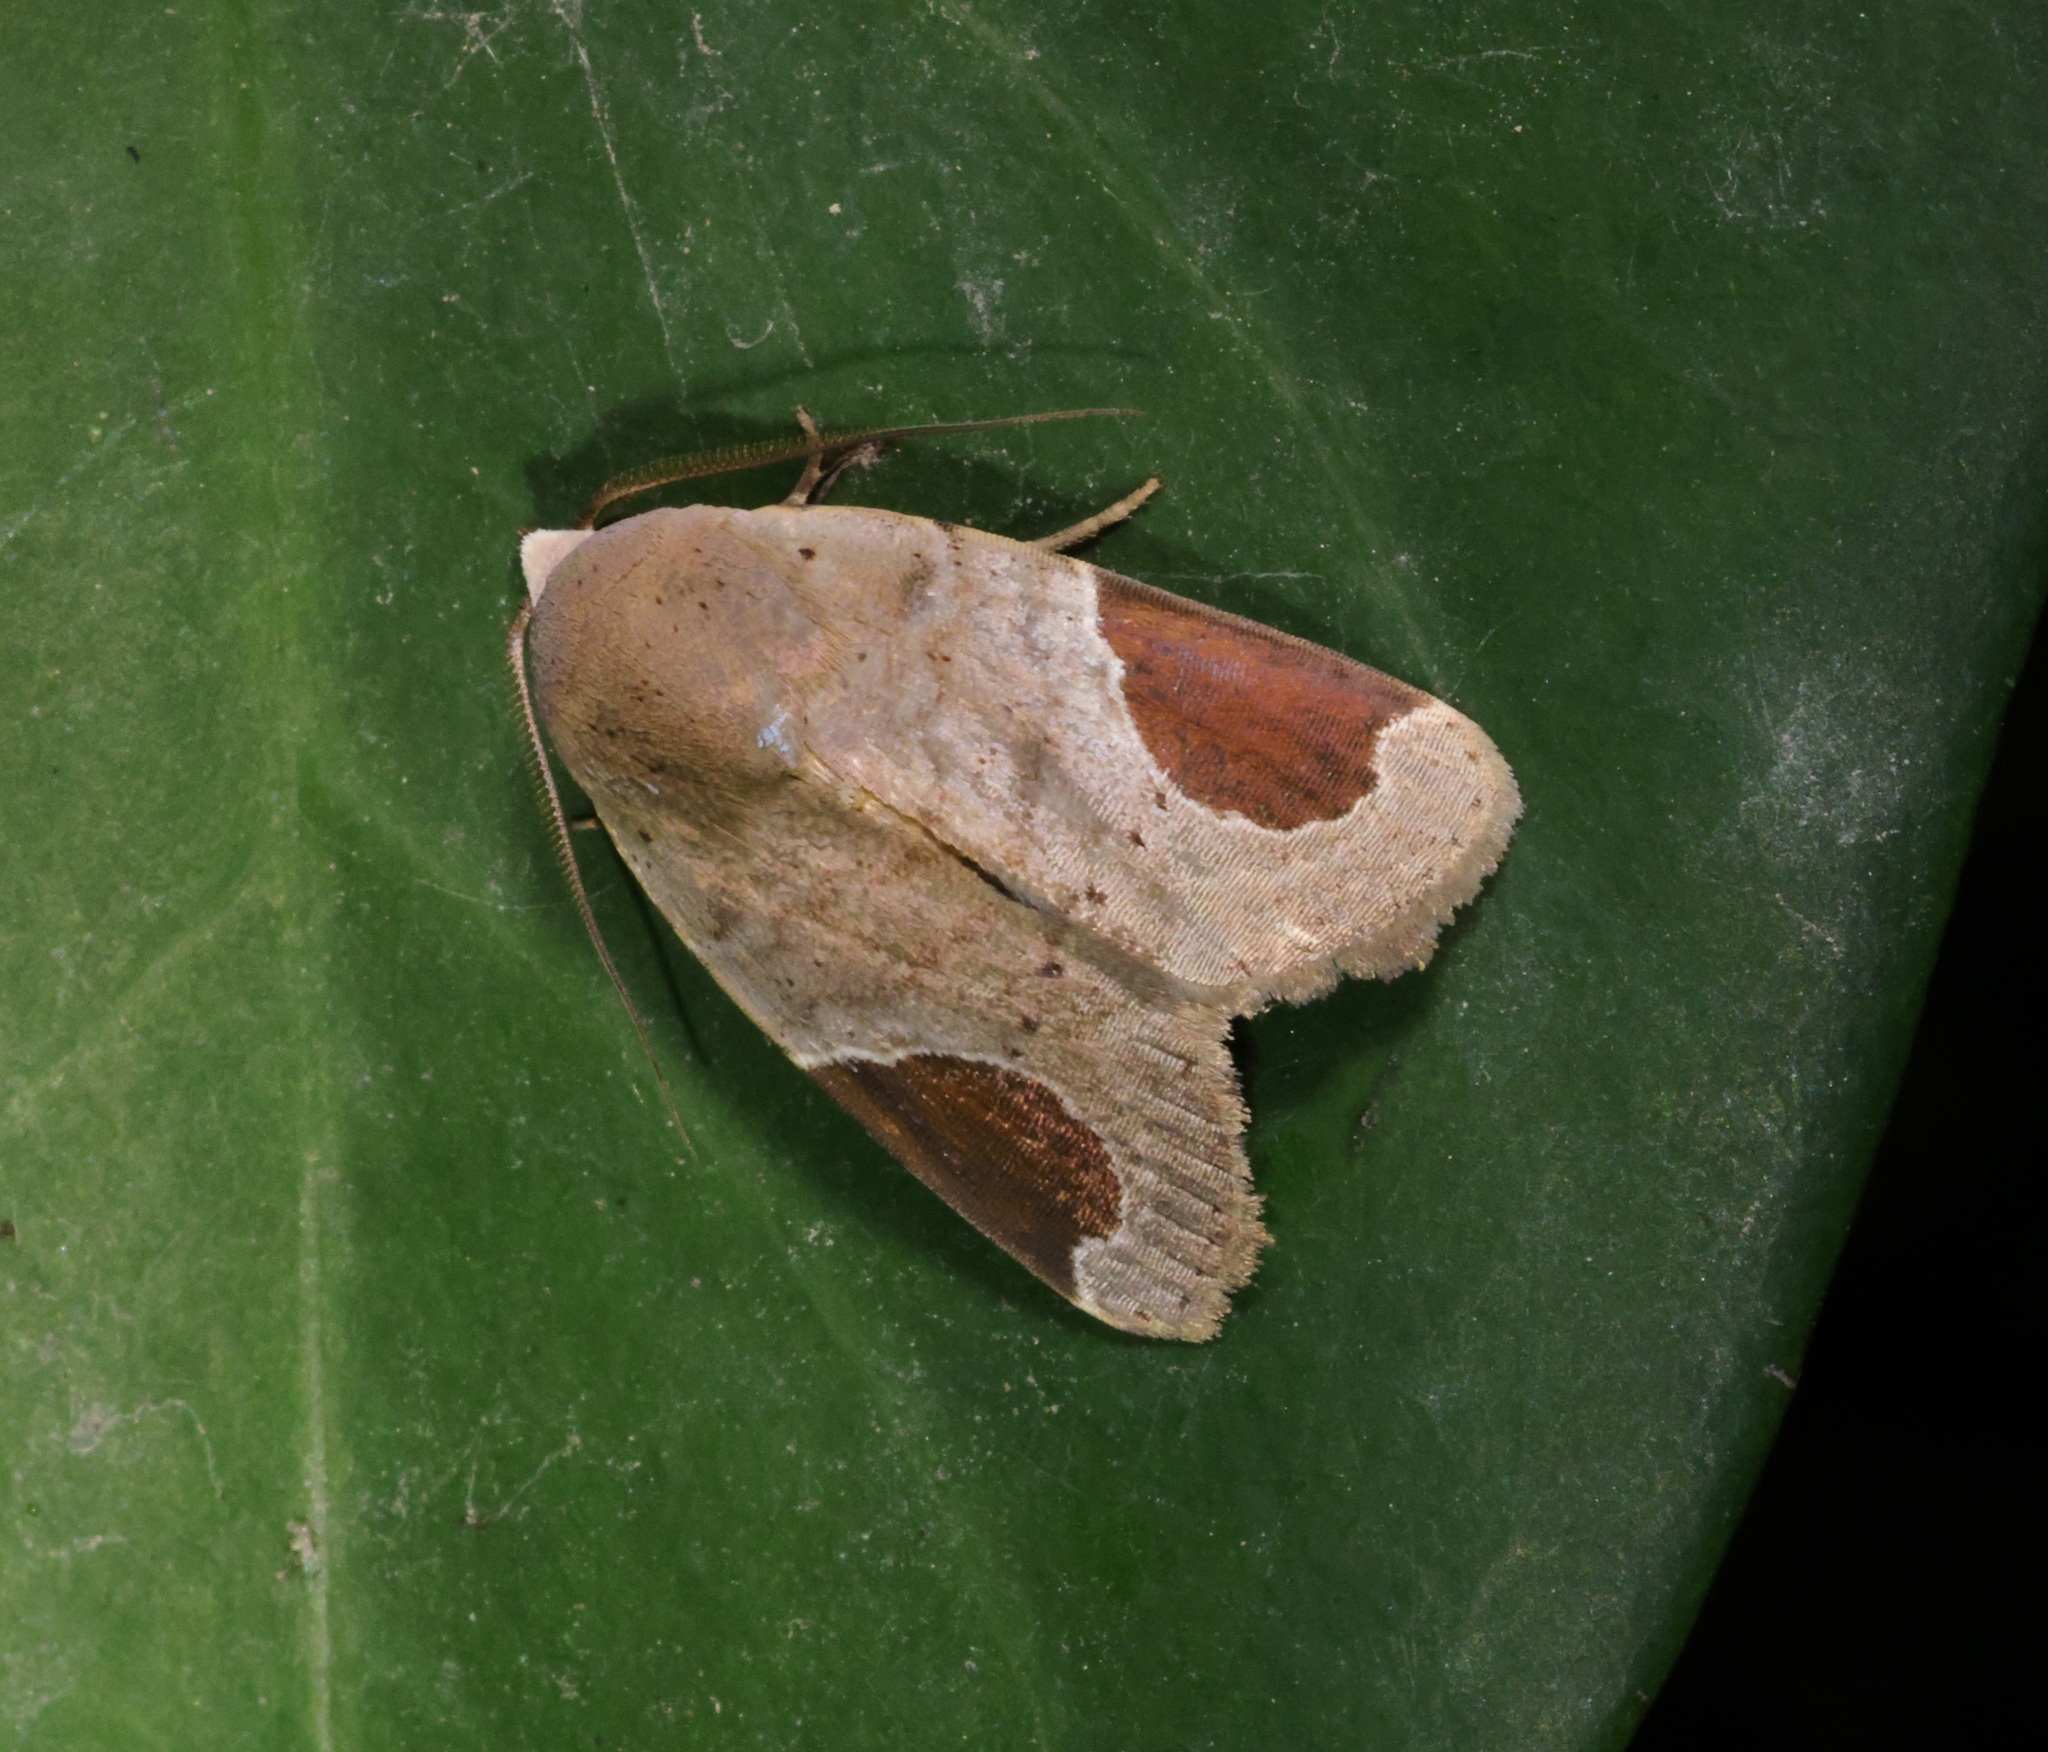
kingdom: Animalia
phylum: Arthropoda
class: Insecta
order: Lepidoptera
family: Noctuidae
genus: Dyrzela
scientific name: Dyrzela plagiata
